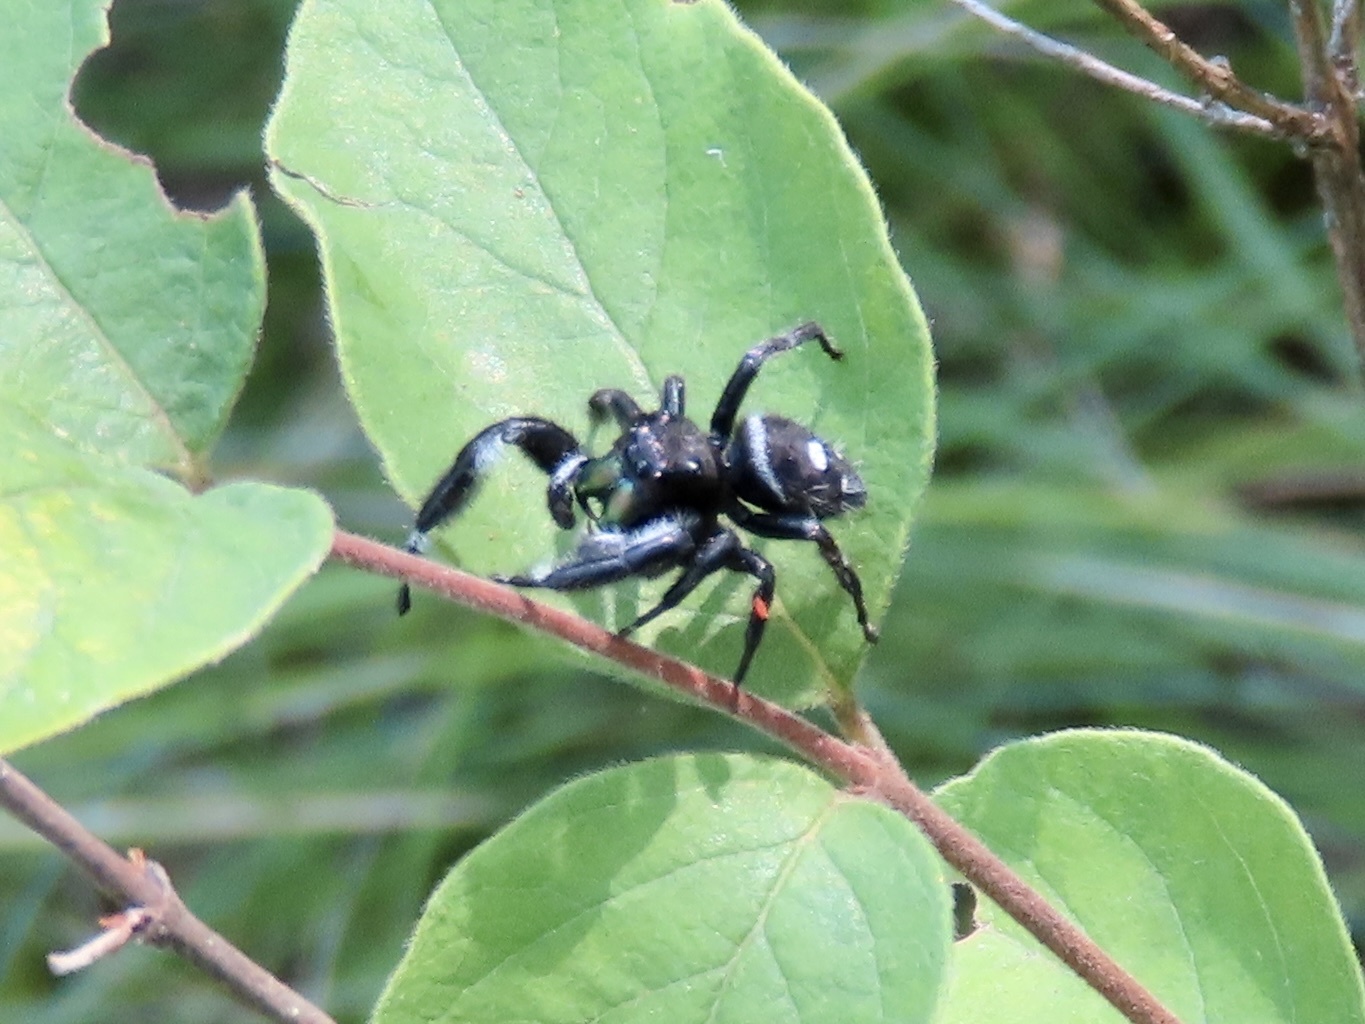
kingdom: Animalia
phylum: Arthropoda
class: Arachnida
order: Araneae
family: Salticidae
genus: Phidippus
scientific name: Phidippus audax
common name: Bold jumper
